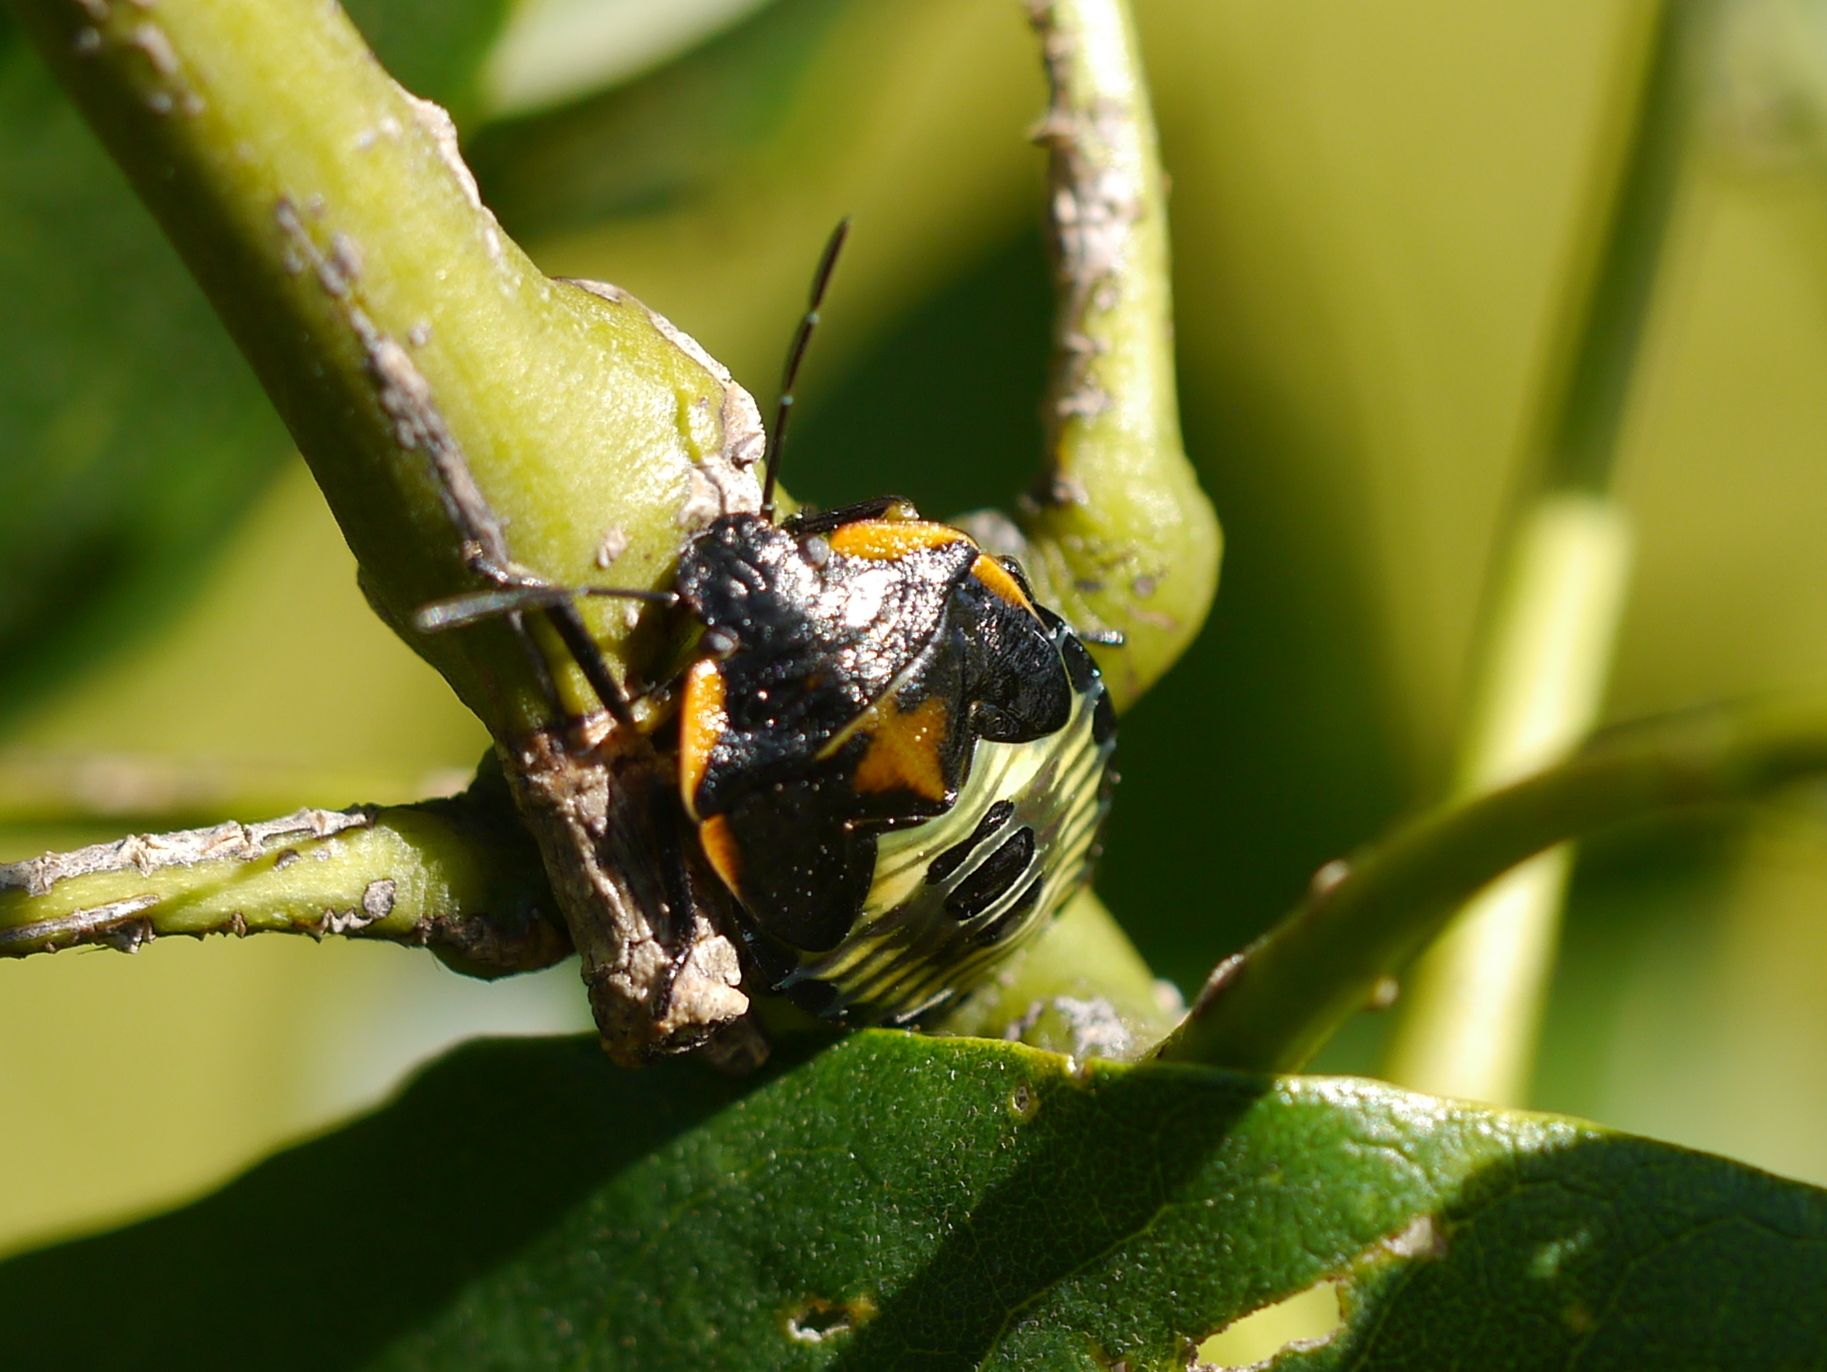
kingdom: Animalia
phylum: Arthropoda
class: Insecta
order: Hemiptera
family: Pentatomidae
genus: Chinavia
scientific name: Chinavia hilaris
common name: Green stink bug
